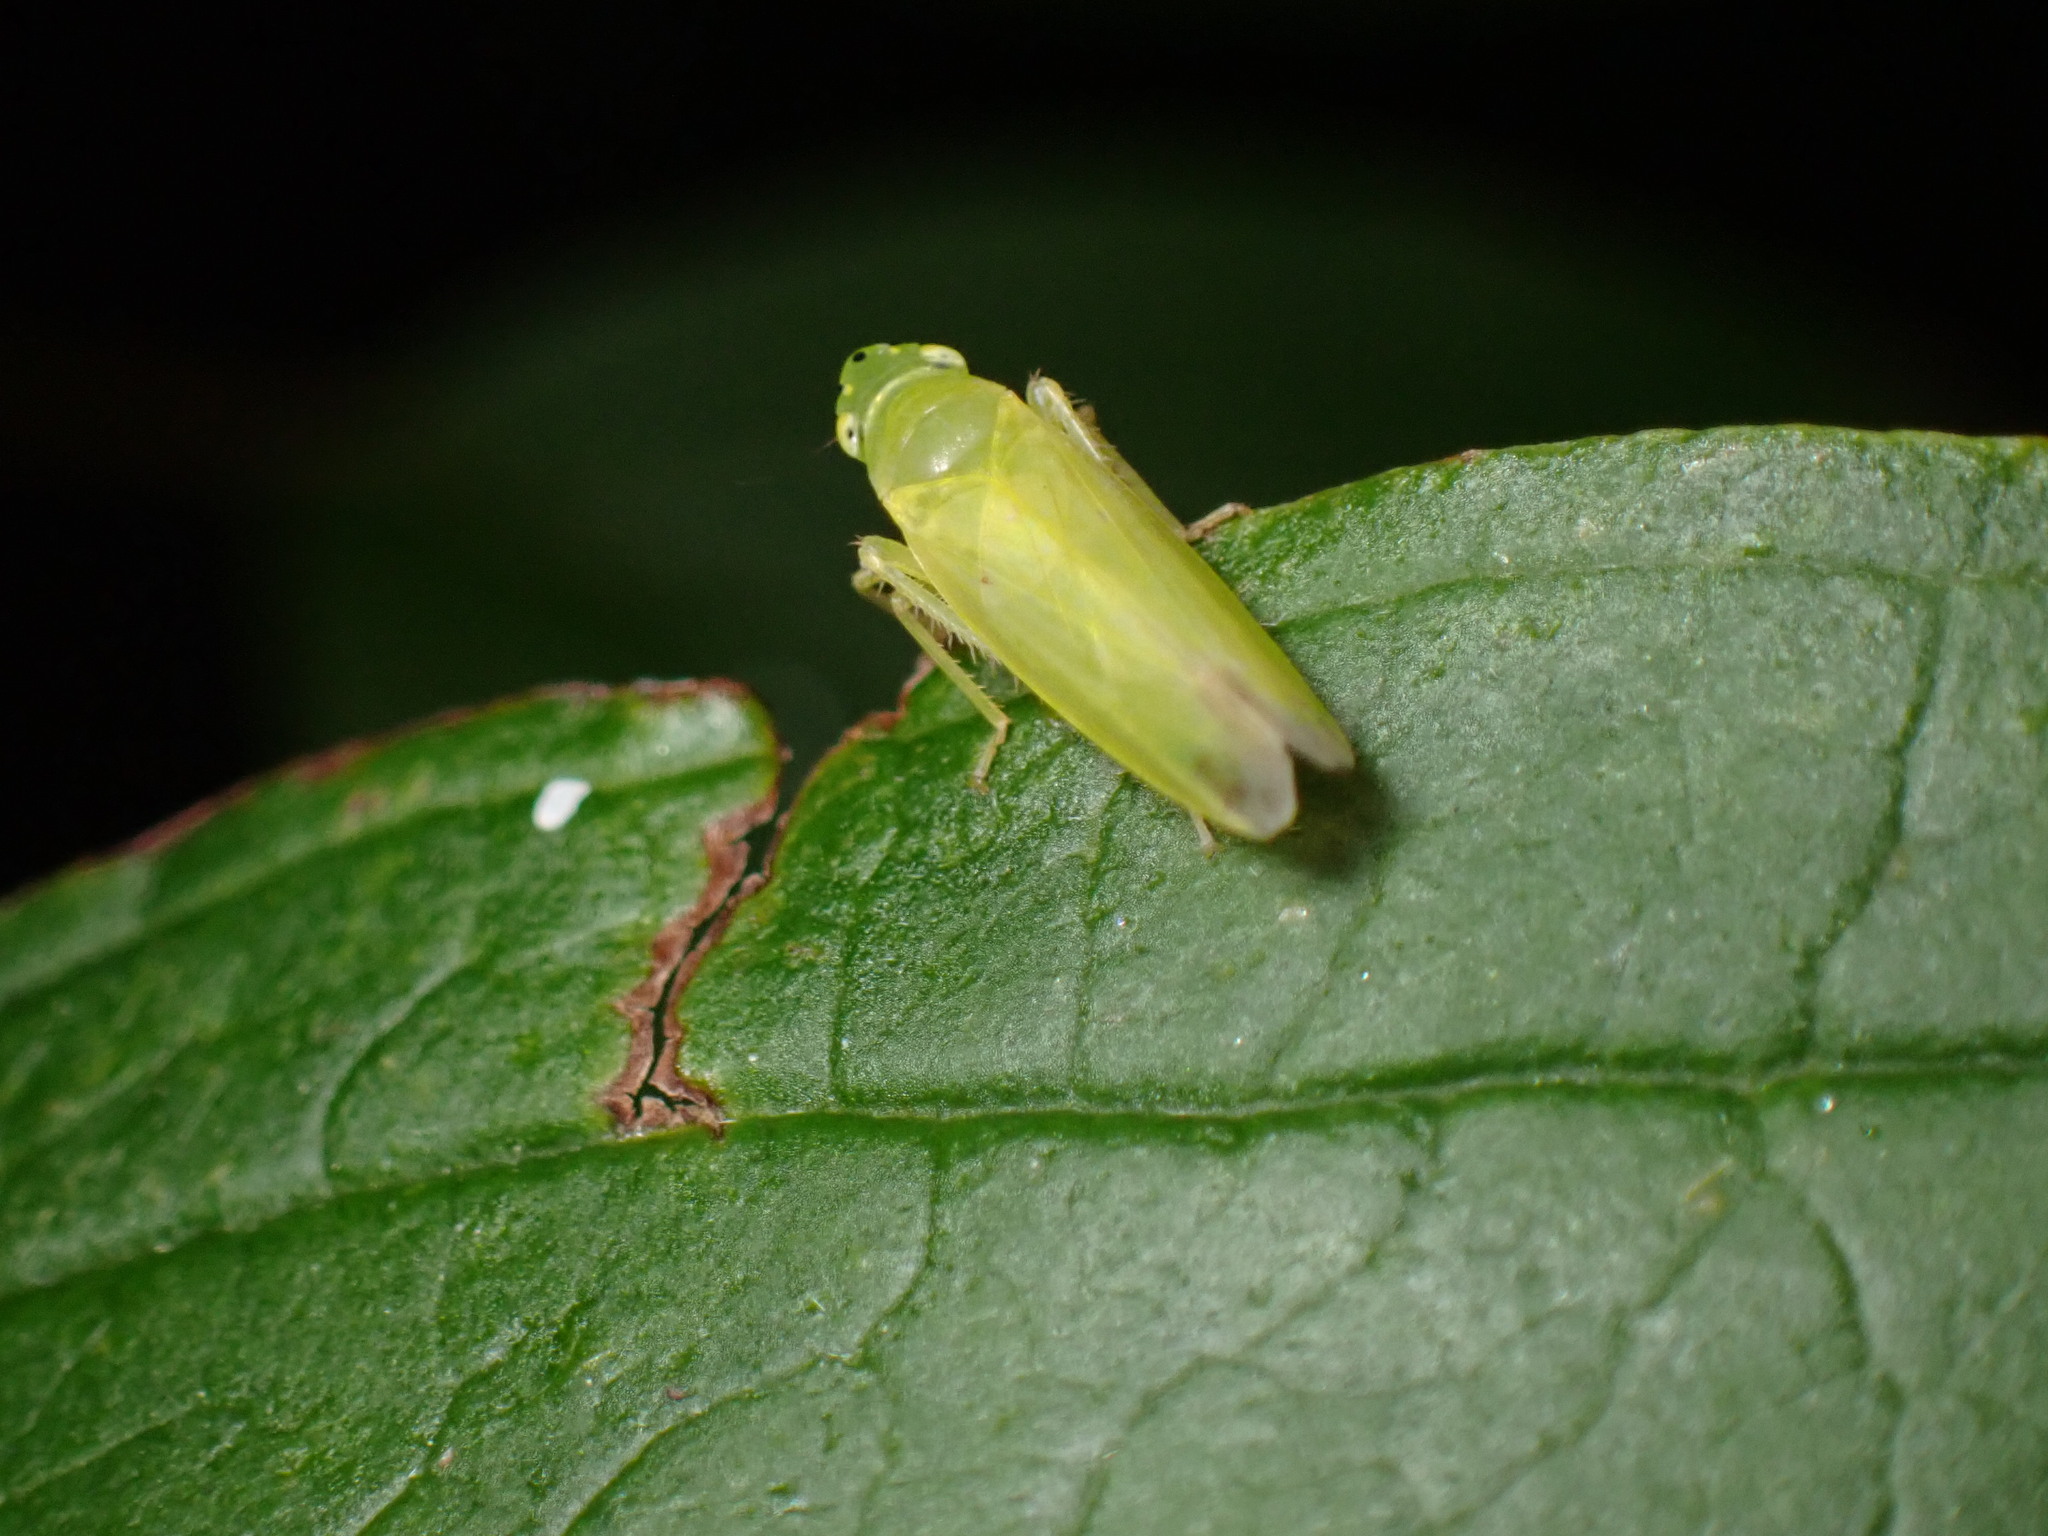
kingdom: Animalia
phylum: Arthropoda
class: Insecta
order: Hemiptera
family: Cicadellidae
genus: Pagaronia
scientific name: Pagaronia minor
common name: Leafhopper
